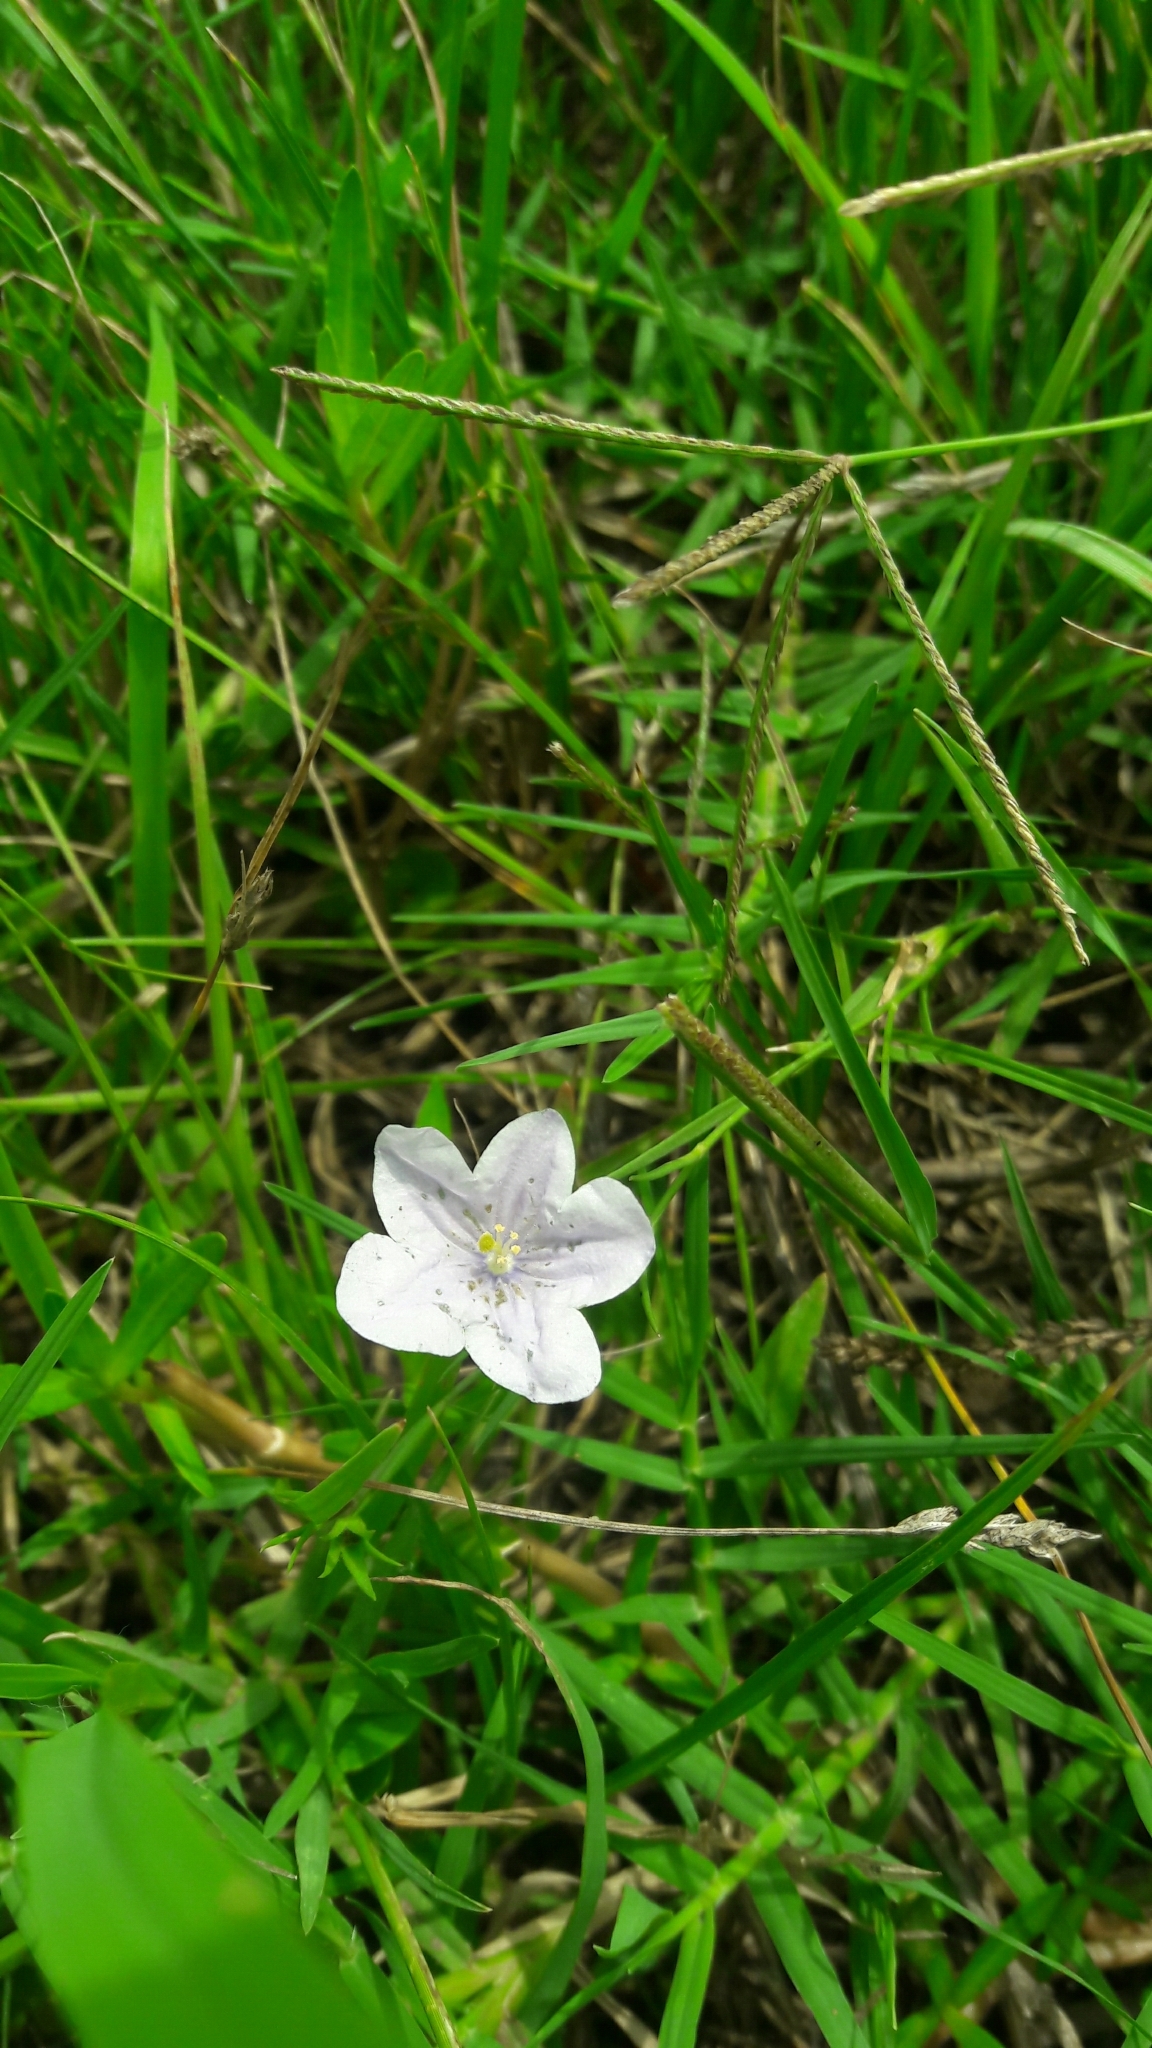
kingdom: Plantae
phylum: Tracheophyta
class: Magnoliopsida
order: Solanales
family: Solanaceae
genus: Nierembergia
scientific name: Nierembergia aristata
